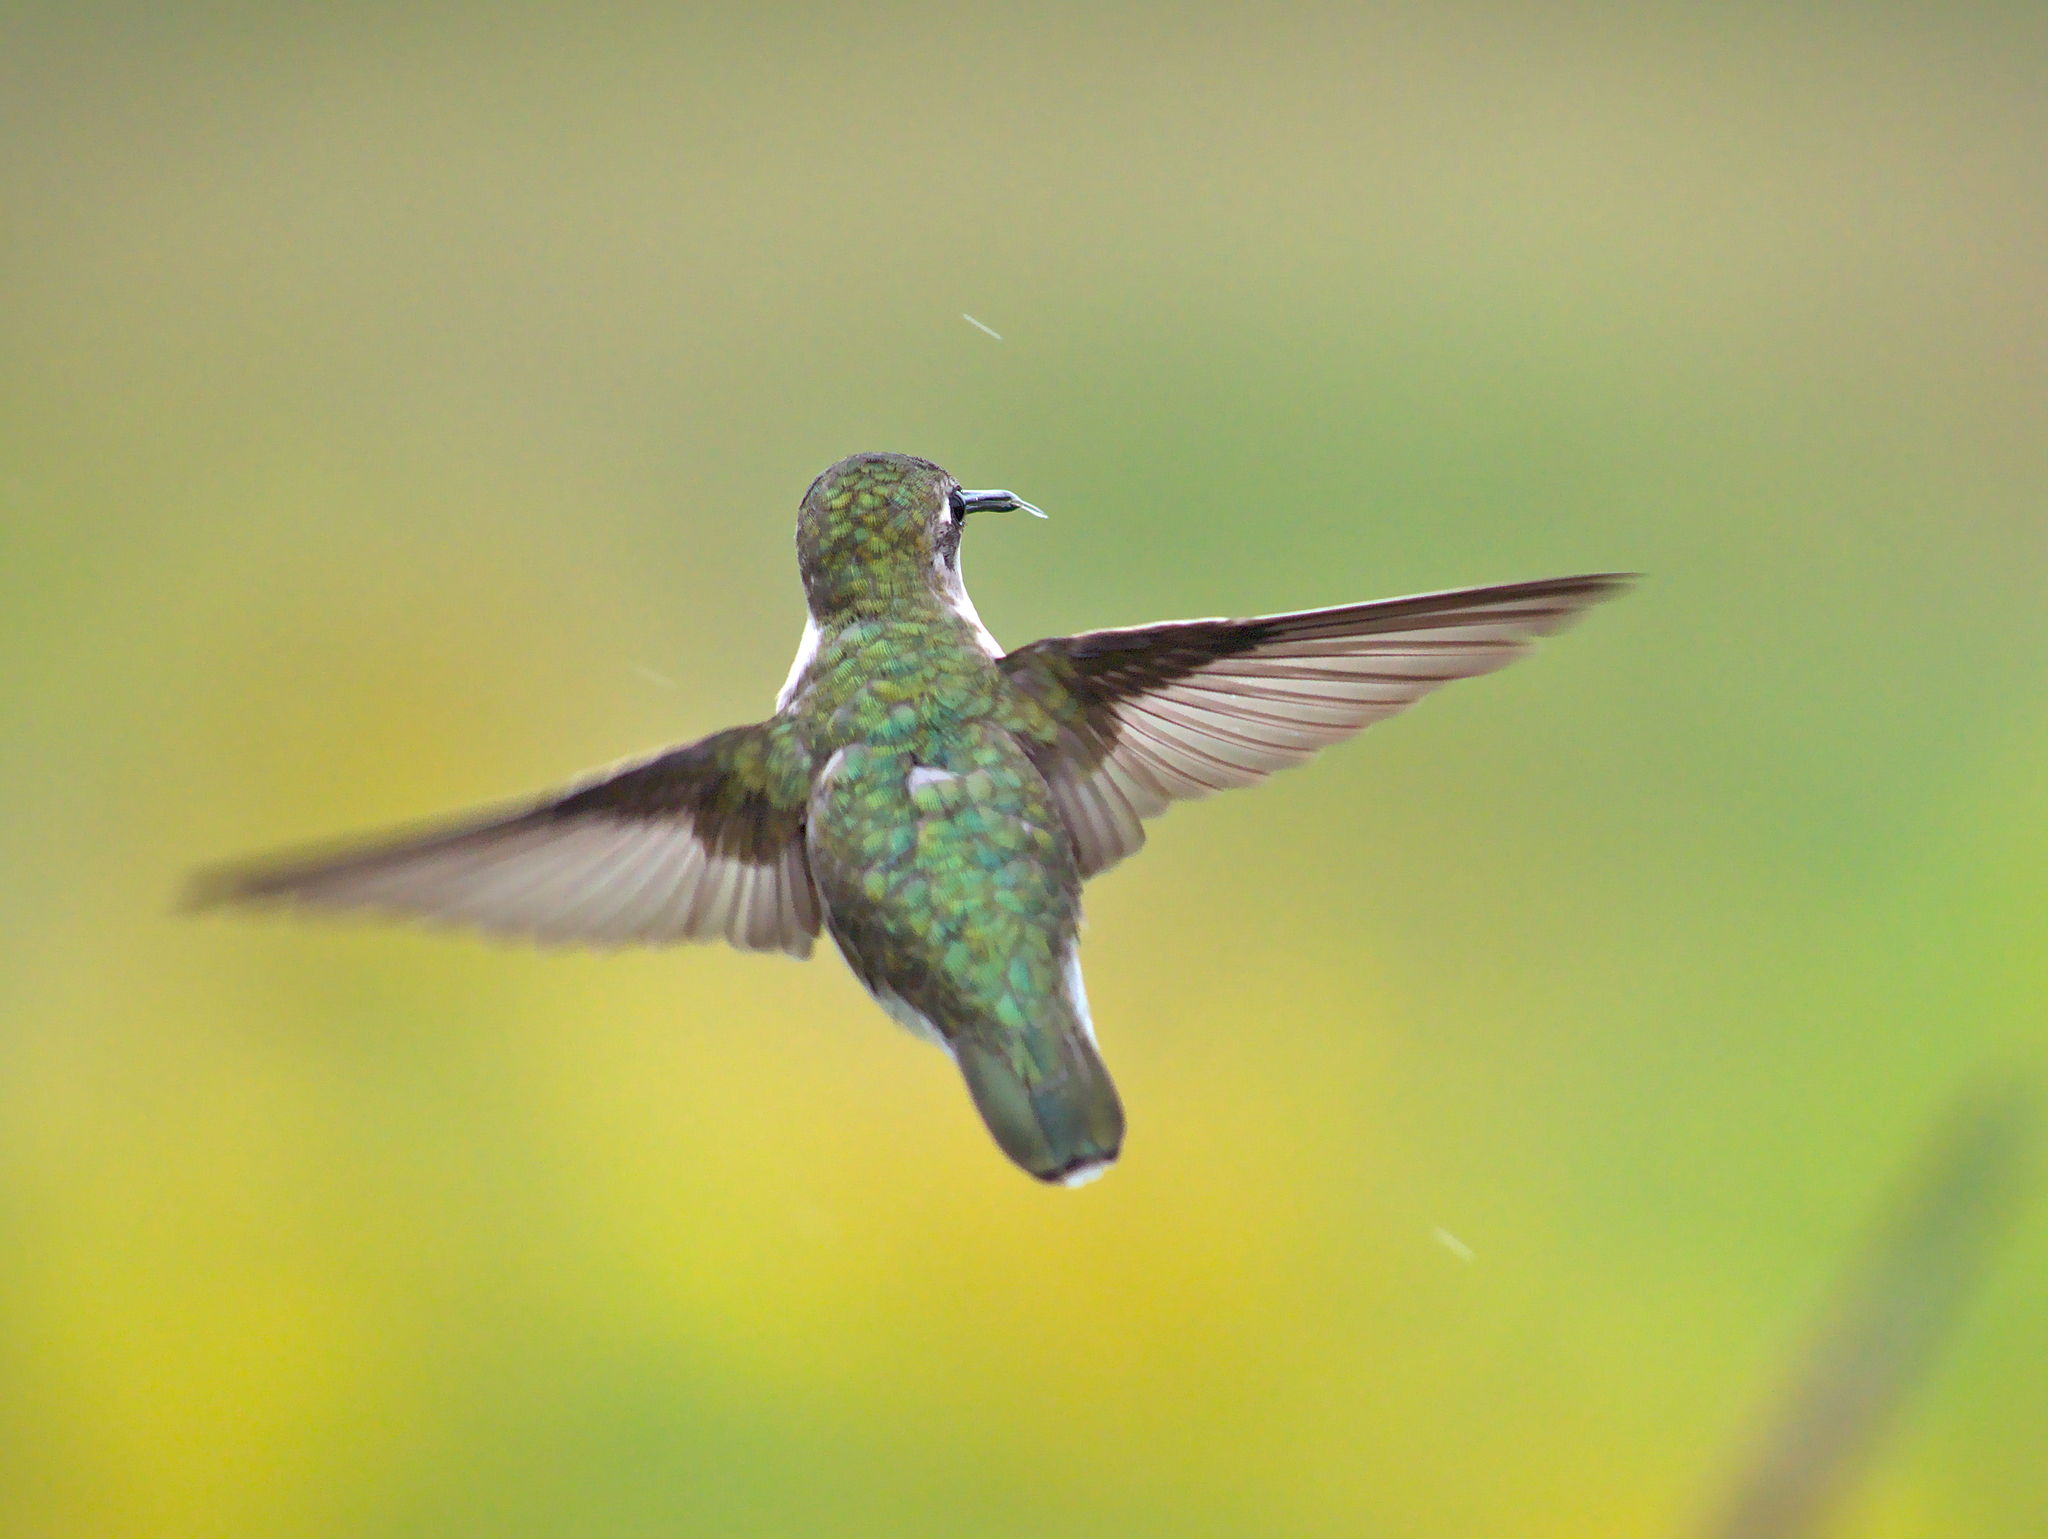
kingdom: Animalia
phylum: Chordata
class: Aves
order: Apodiformes
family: Trochilidae
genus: Archilochus
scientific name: Archilochus colubris
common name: Ruby-throated hummingbird
